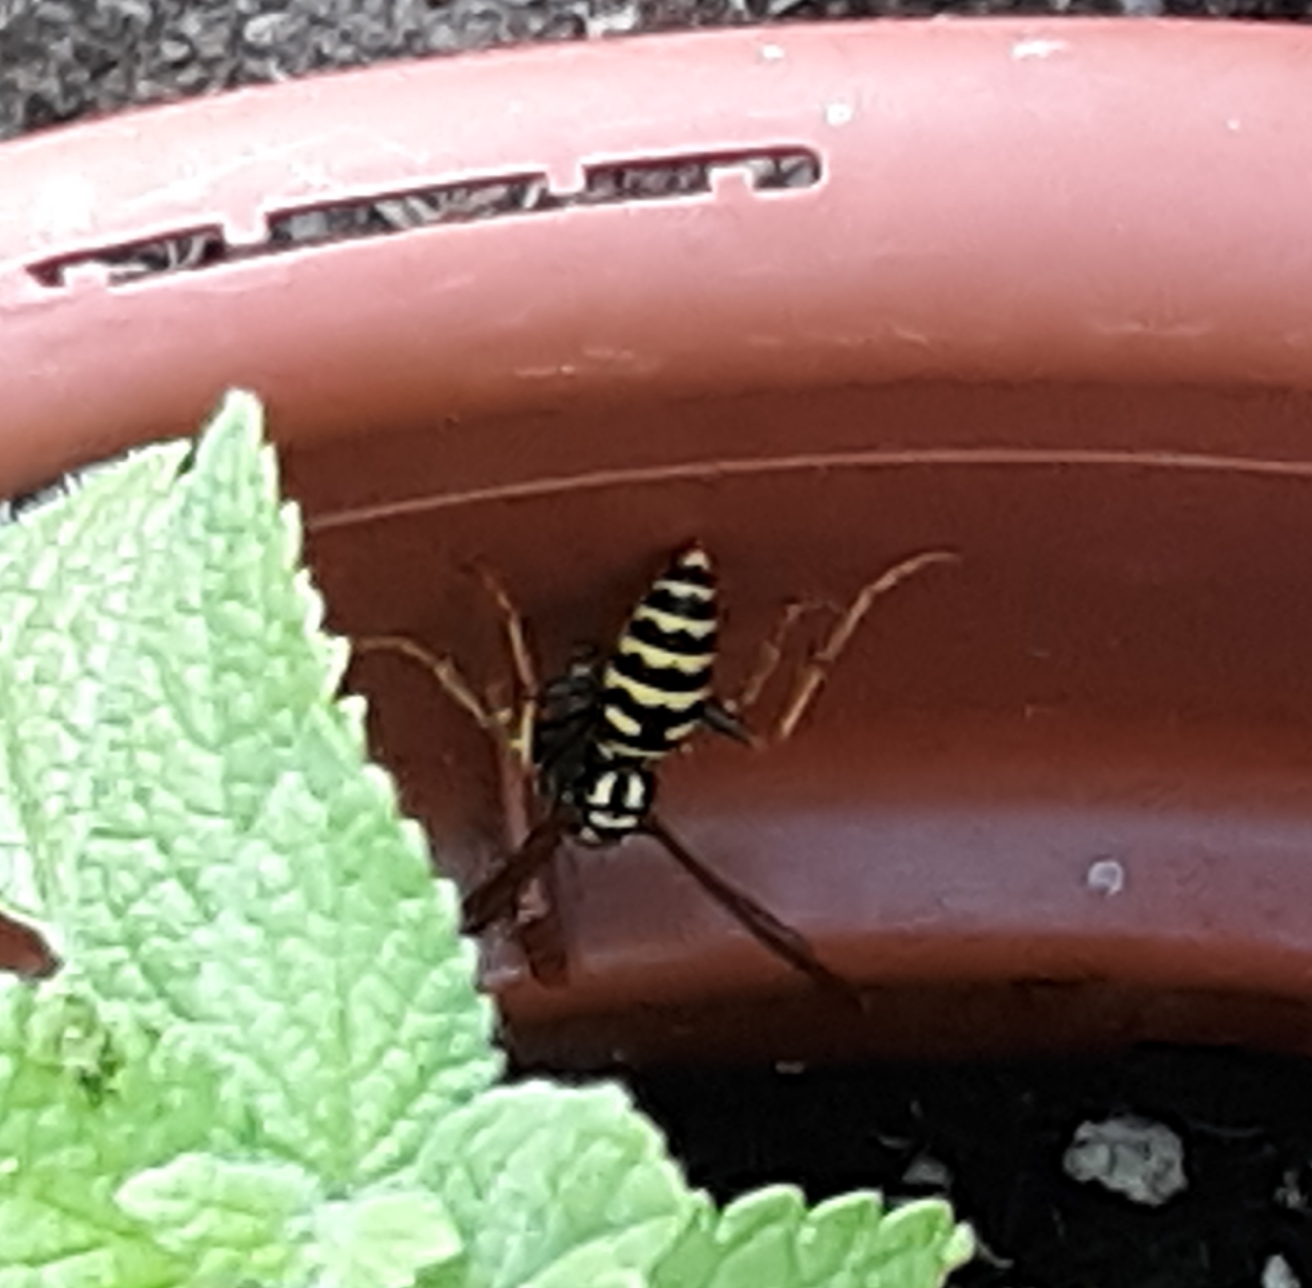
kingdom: Animalia
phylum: Arthropoda
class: Insecta
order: Hymenoptera
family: Eumenidae
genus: Polistes
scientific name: Polistes dominula
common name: Paper wasp
